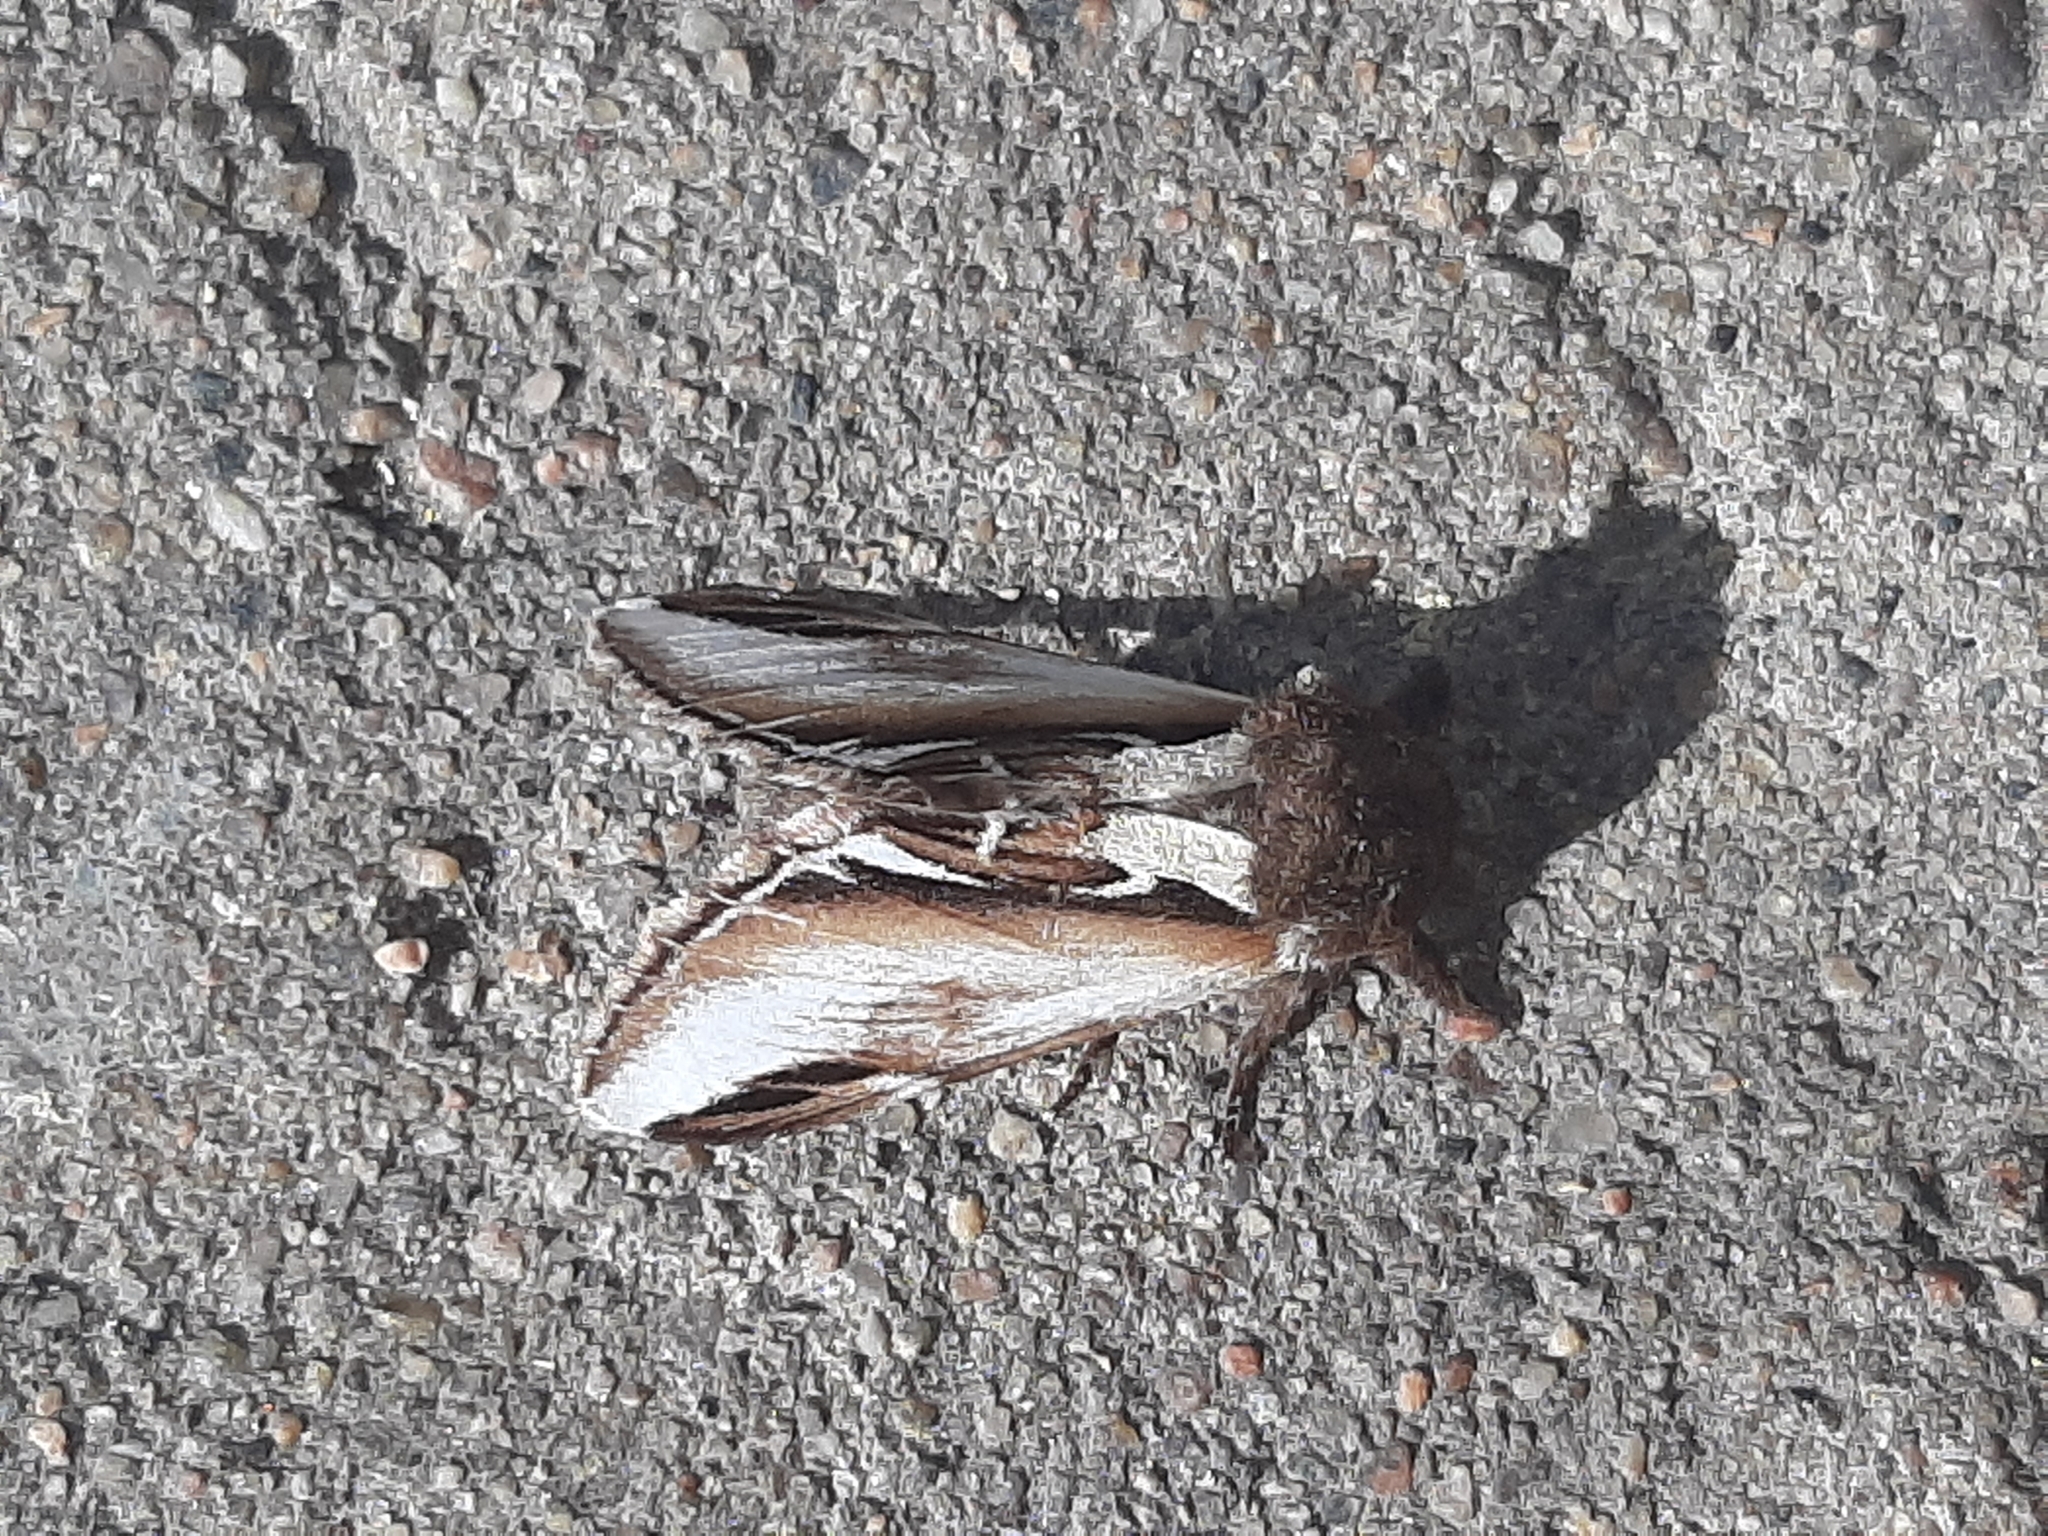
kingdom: Animalia
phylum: Arthropoda
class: Insecta
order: Lepidoptera
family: Notodontidae
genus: Pheosia
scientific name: Pheosia gnoma
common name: Lesser swallow prominent
